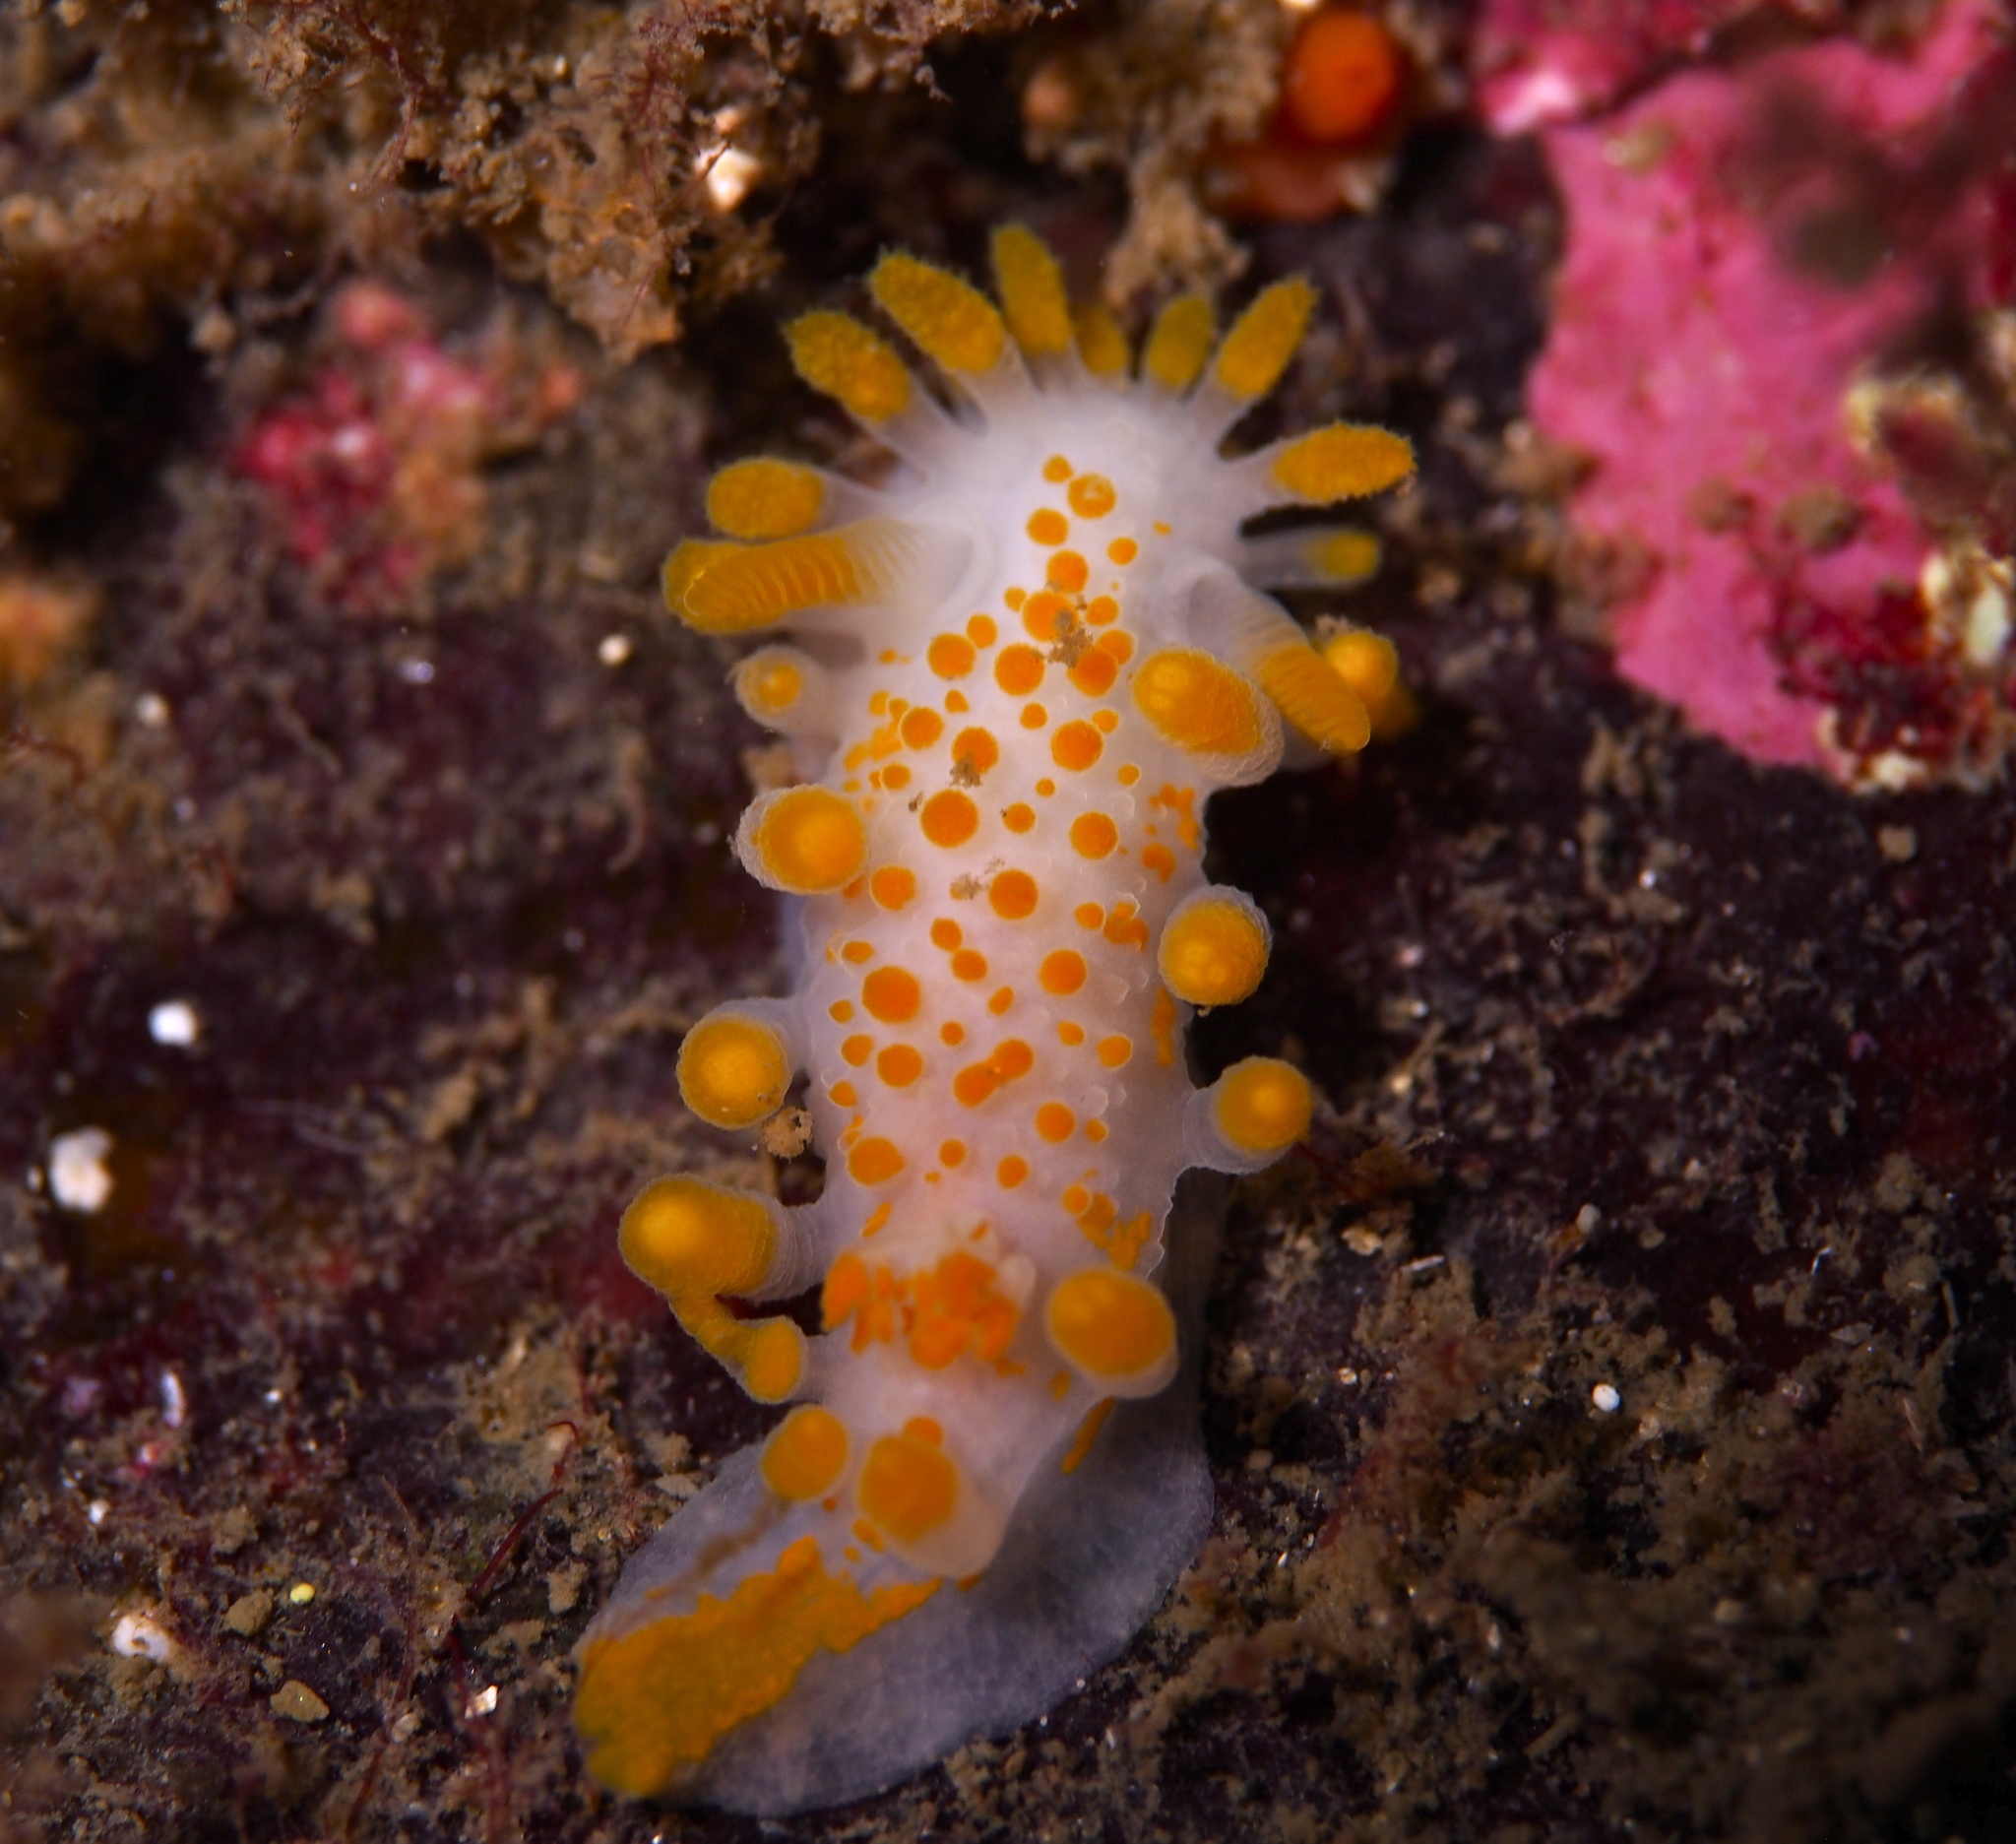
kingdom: Animalia
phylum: Mollusca
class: Gastropoda
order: Nudibranchia
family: Polyceridae
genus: Limacia
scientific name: Limacia clavigera
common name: Orange-clubbed sea slug
